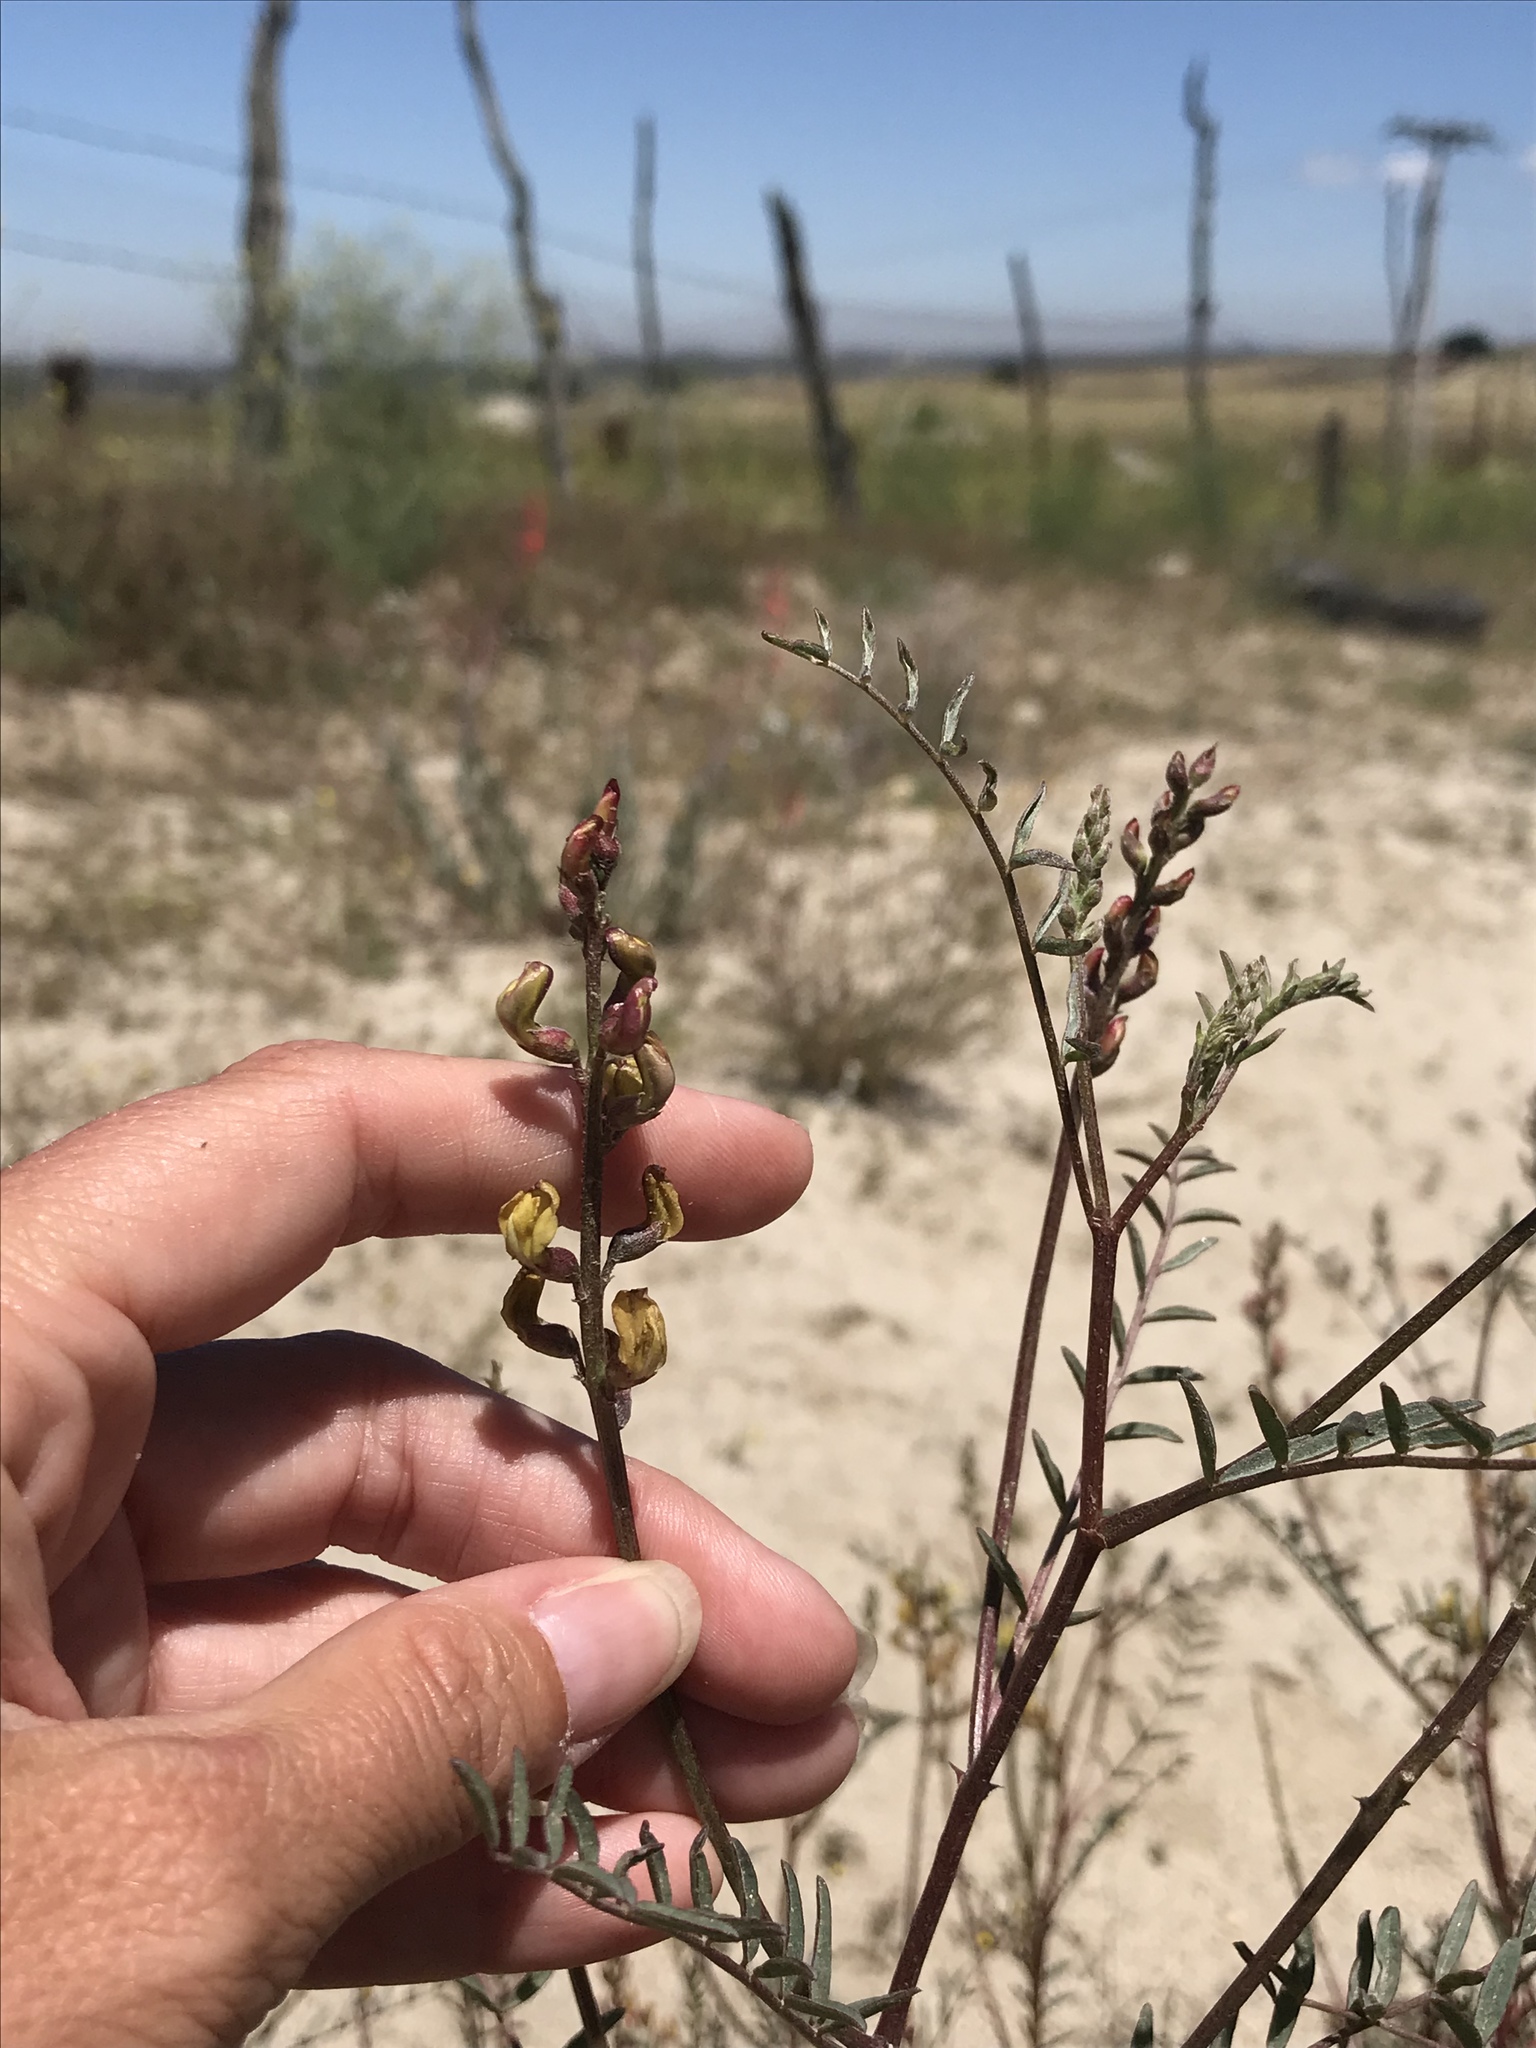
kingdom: Plantae
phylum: Tracheophyta
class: Magnoliopsida
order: Fabales
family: Fabaceae
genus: Astragalus
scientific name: Astragalus douglasii
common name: Jacumba milkvetch
